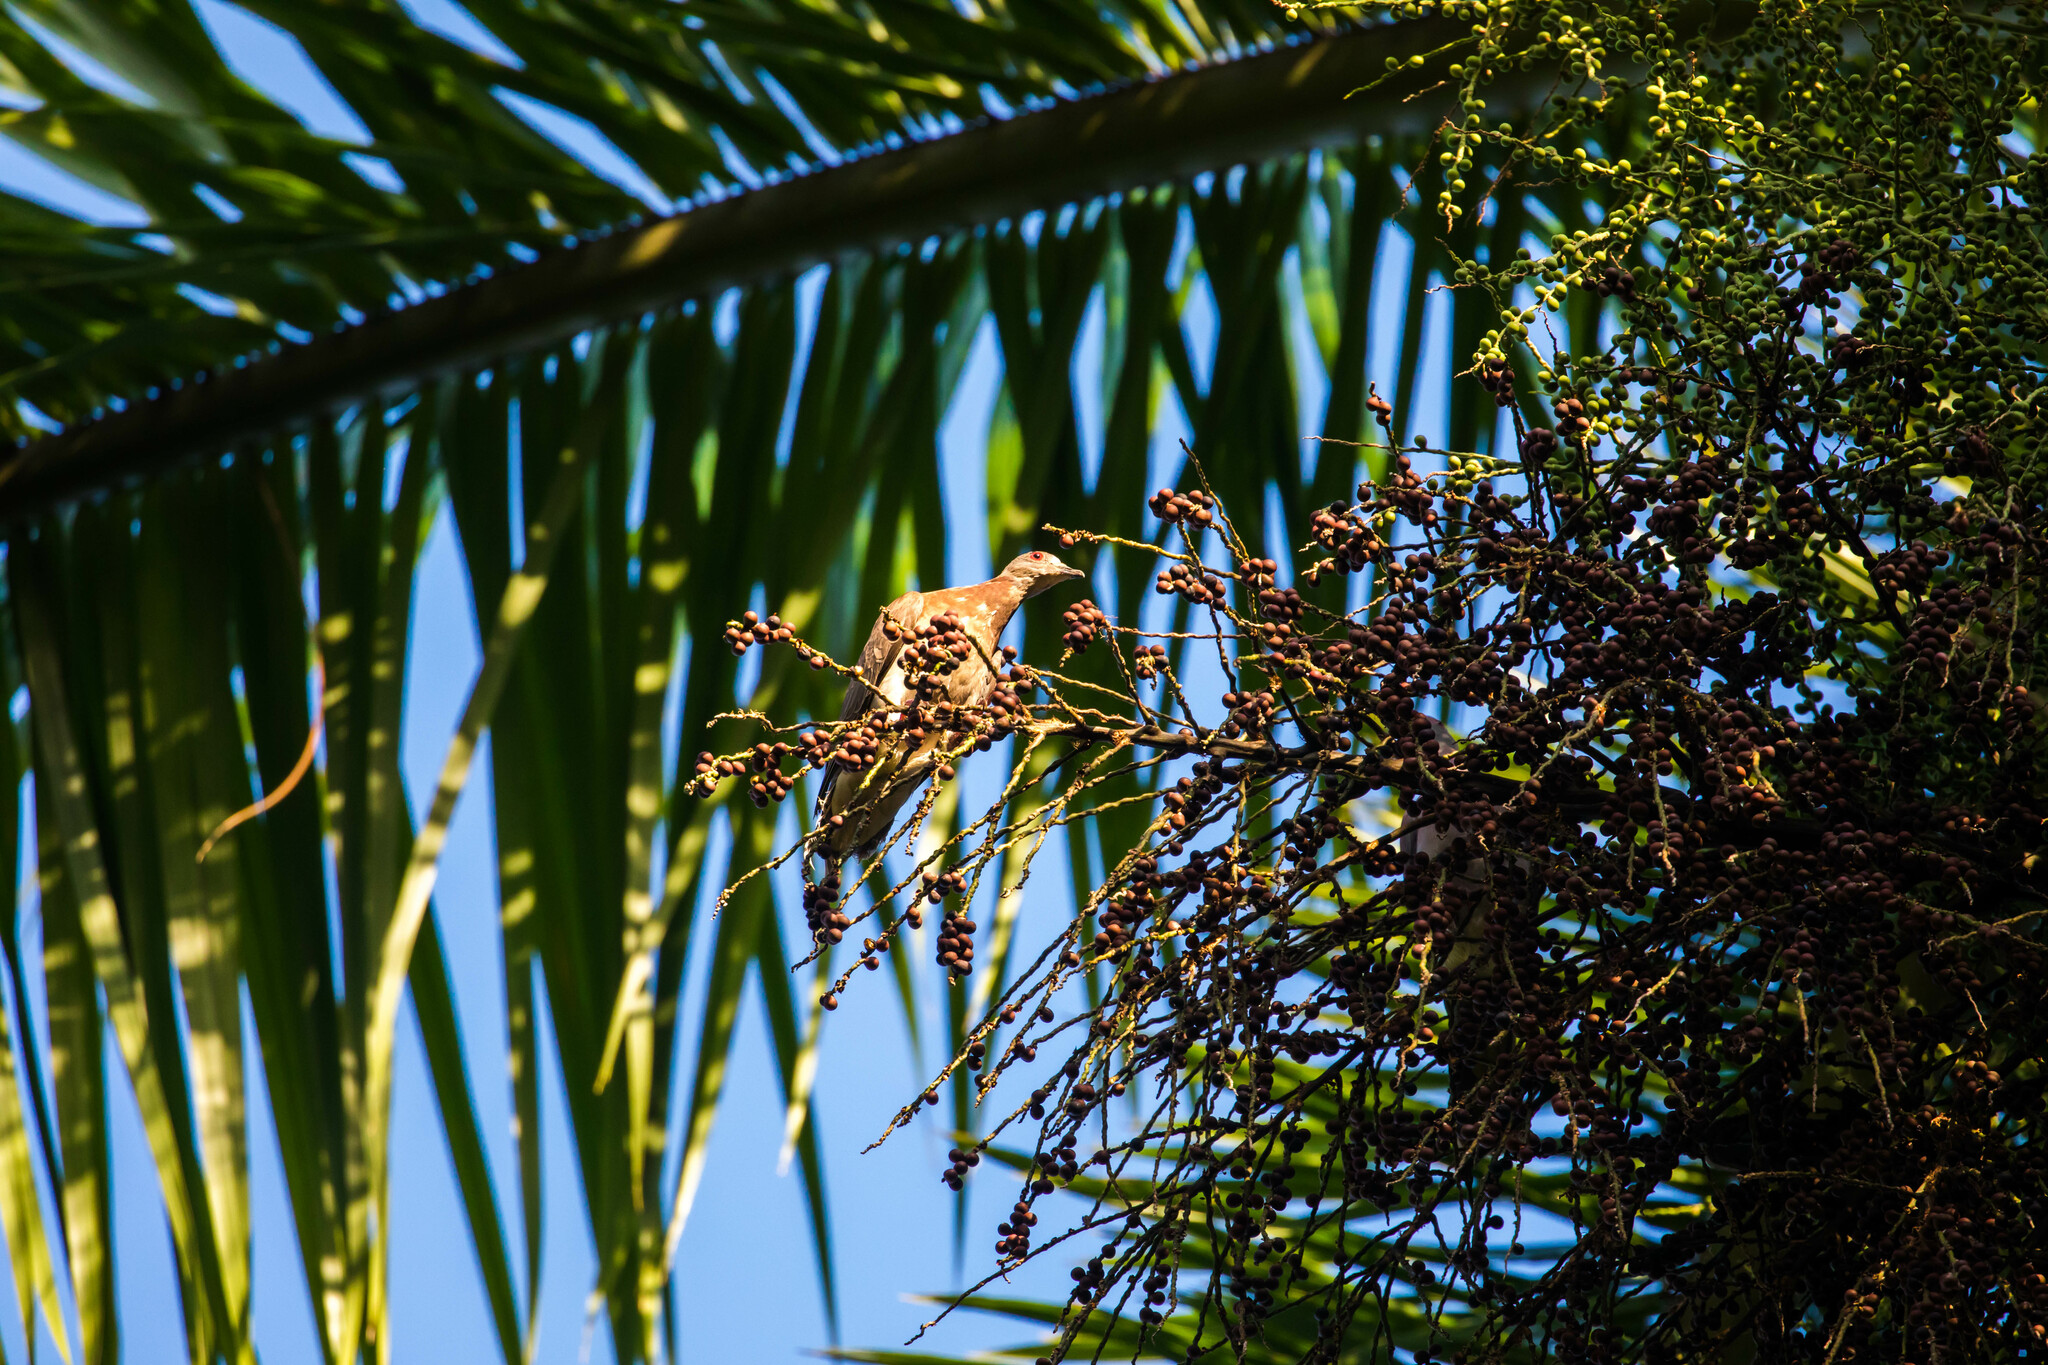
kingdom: Animalia
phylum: Chordata
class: Aves
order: Columbiformes
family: Columbidae
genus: Patagioenas
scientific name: Patagioenas cayennensis
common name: Pale-vented pigeon
